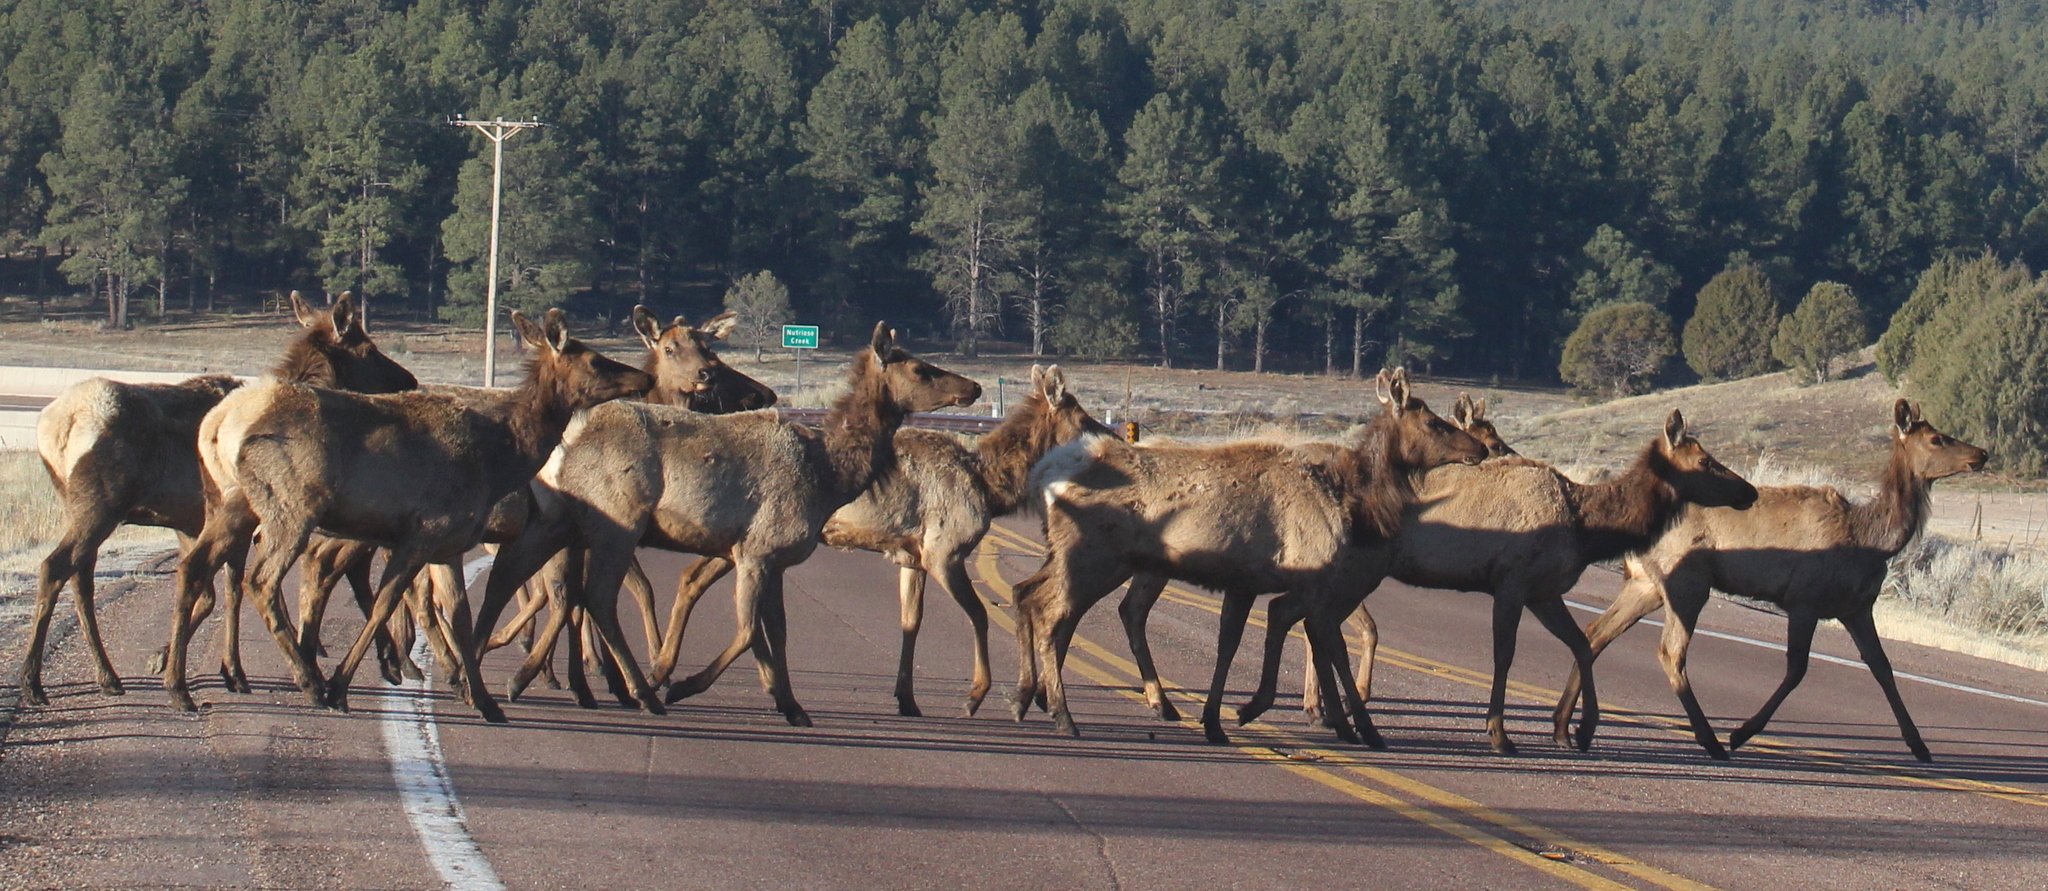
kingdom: Animalia
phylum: Chordata
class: Mammalia
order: Artiodactyla
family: Cervidae
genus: Cervus
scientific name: Cervus elaphus
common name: Red deer
